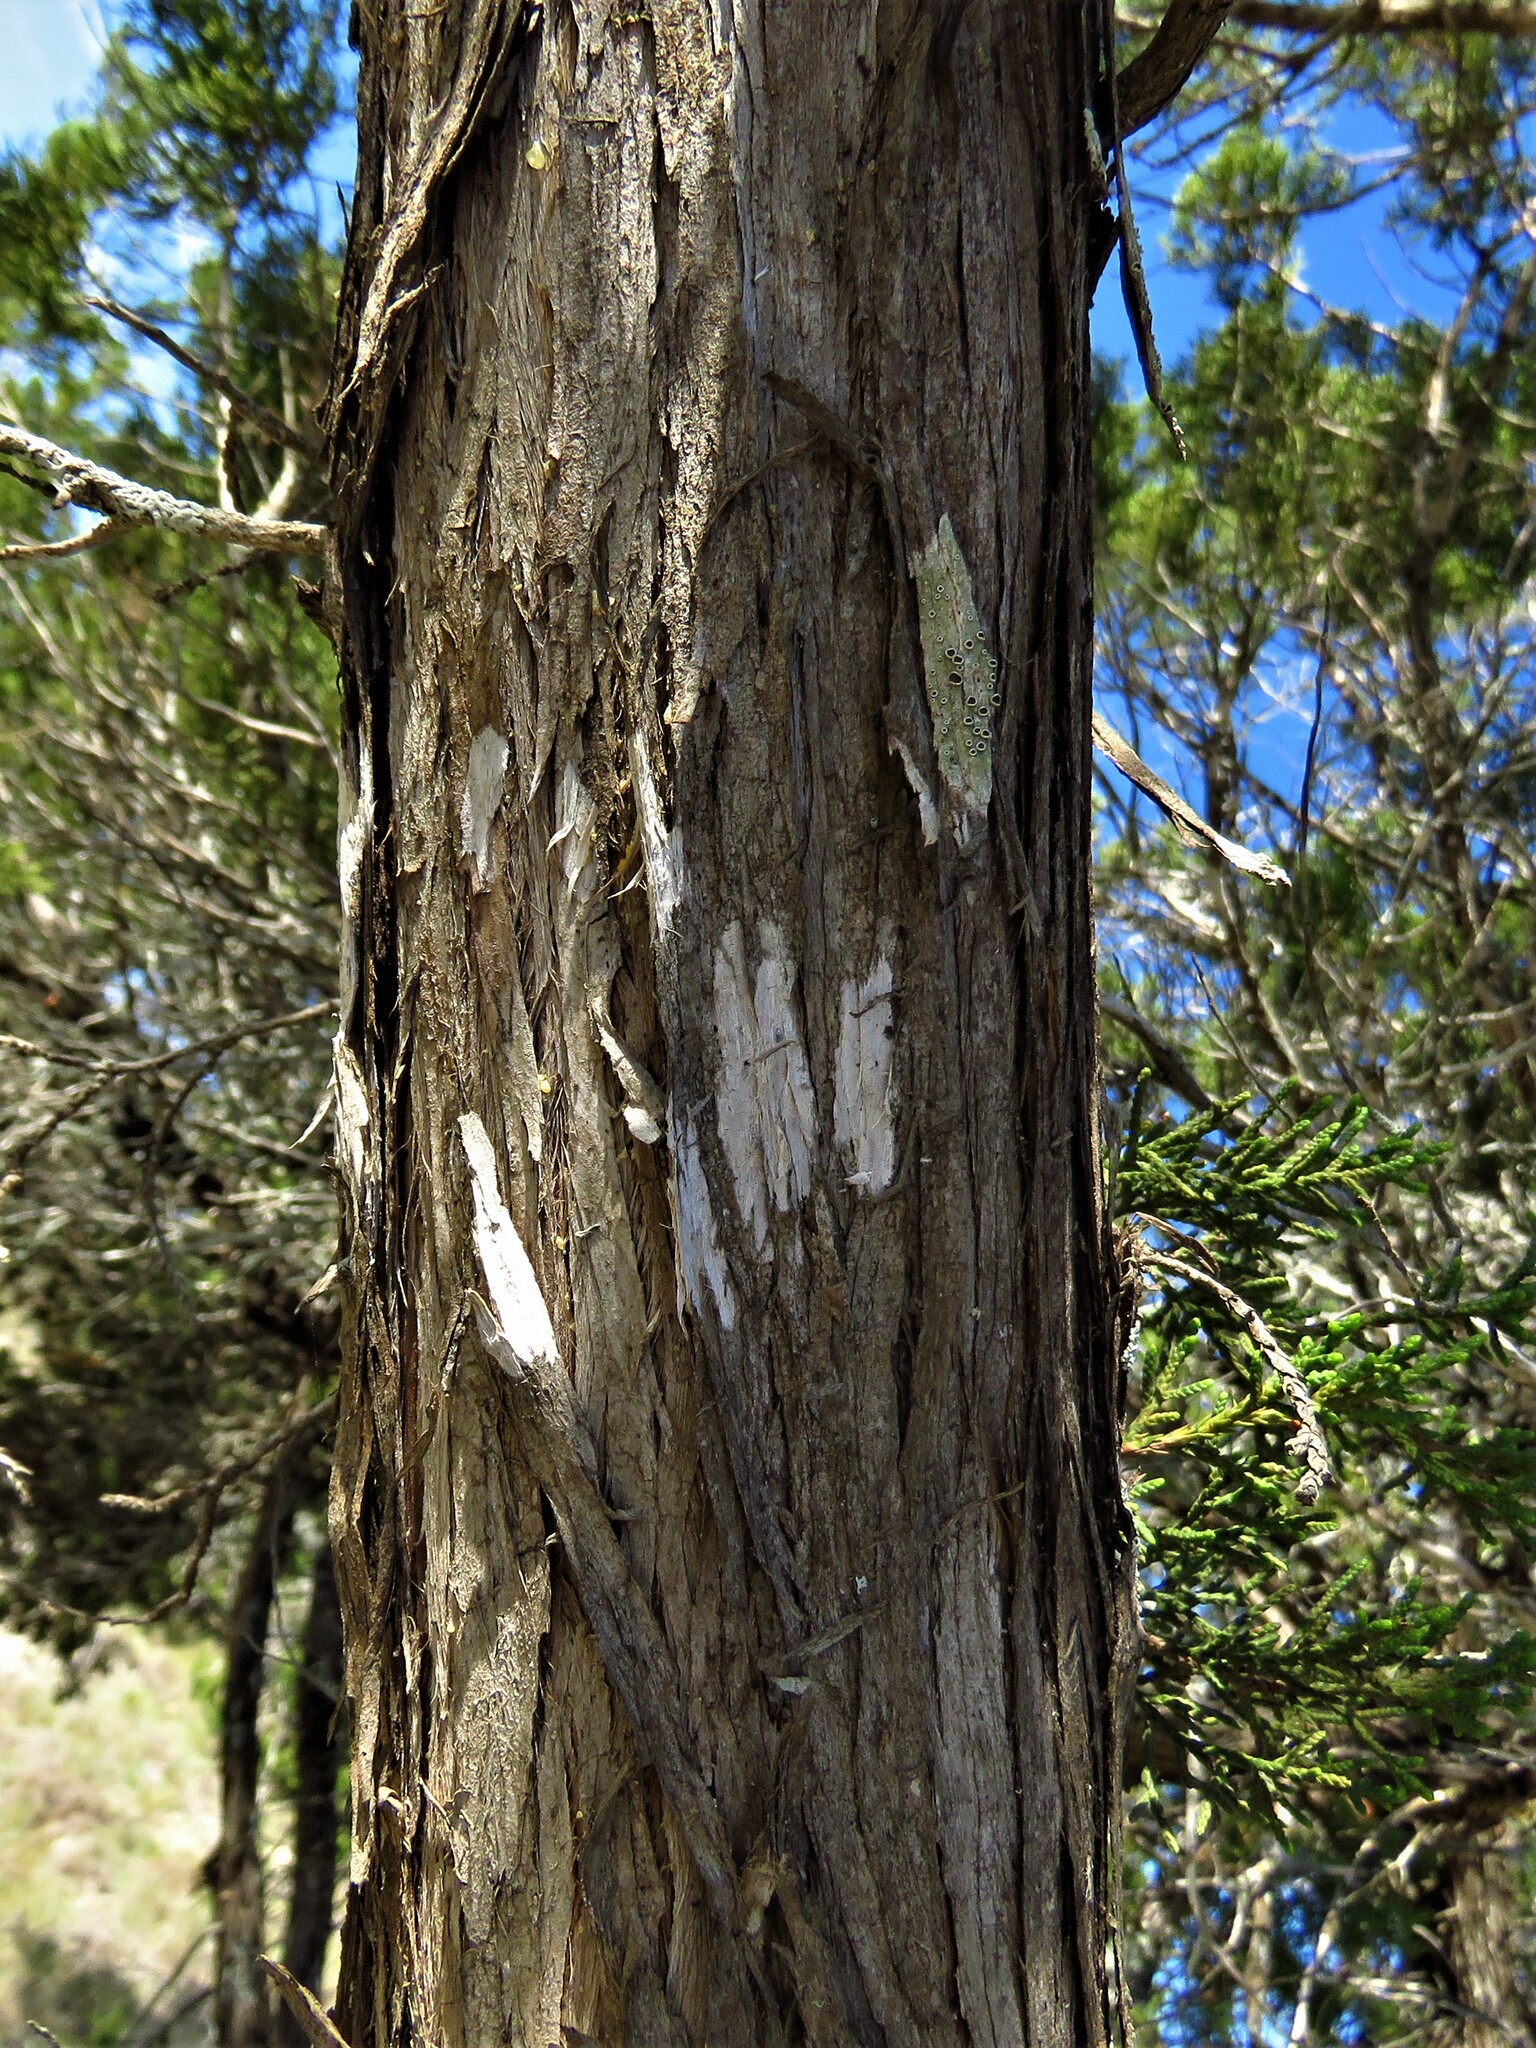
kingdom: Fungi
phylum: Ascomycota
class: Lecanoromycetes
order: Ostropales
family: Stictidaceae
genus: Robergea
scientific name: Robergea
